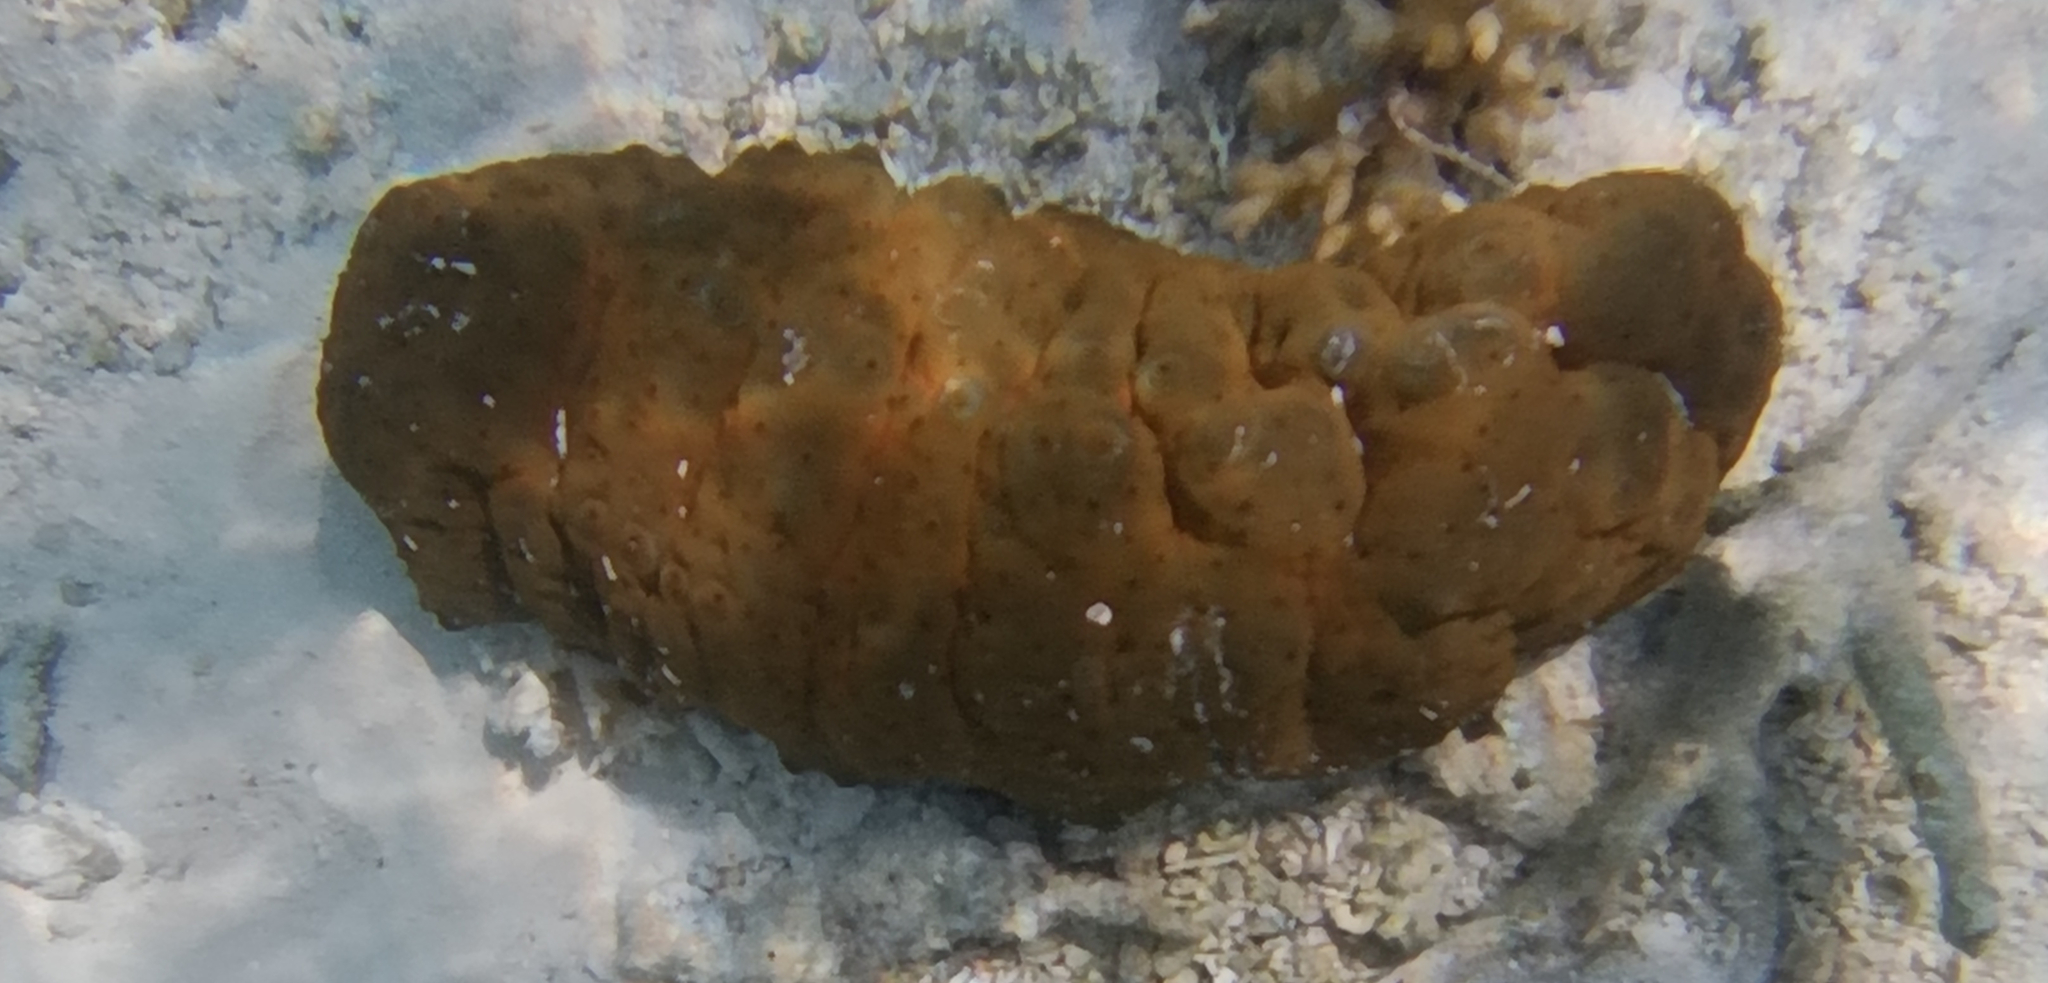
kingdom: Animalia
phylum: Echinodermata
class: Holothuroidea
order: Synallactida
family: Stichopodidae
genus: Stichopus
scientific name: Stichopus herrmanni
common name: Curryfish
